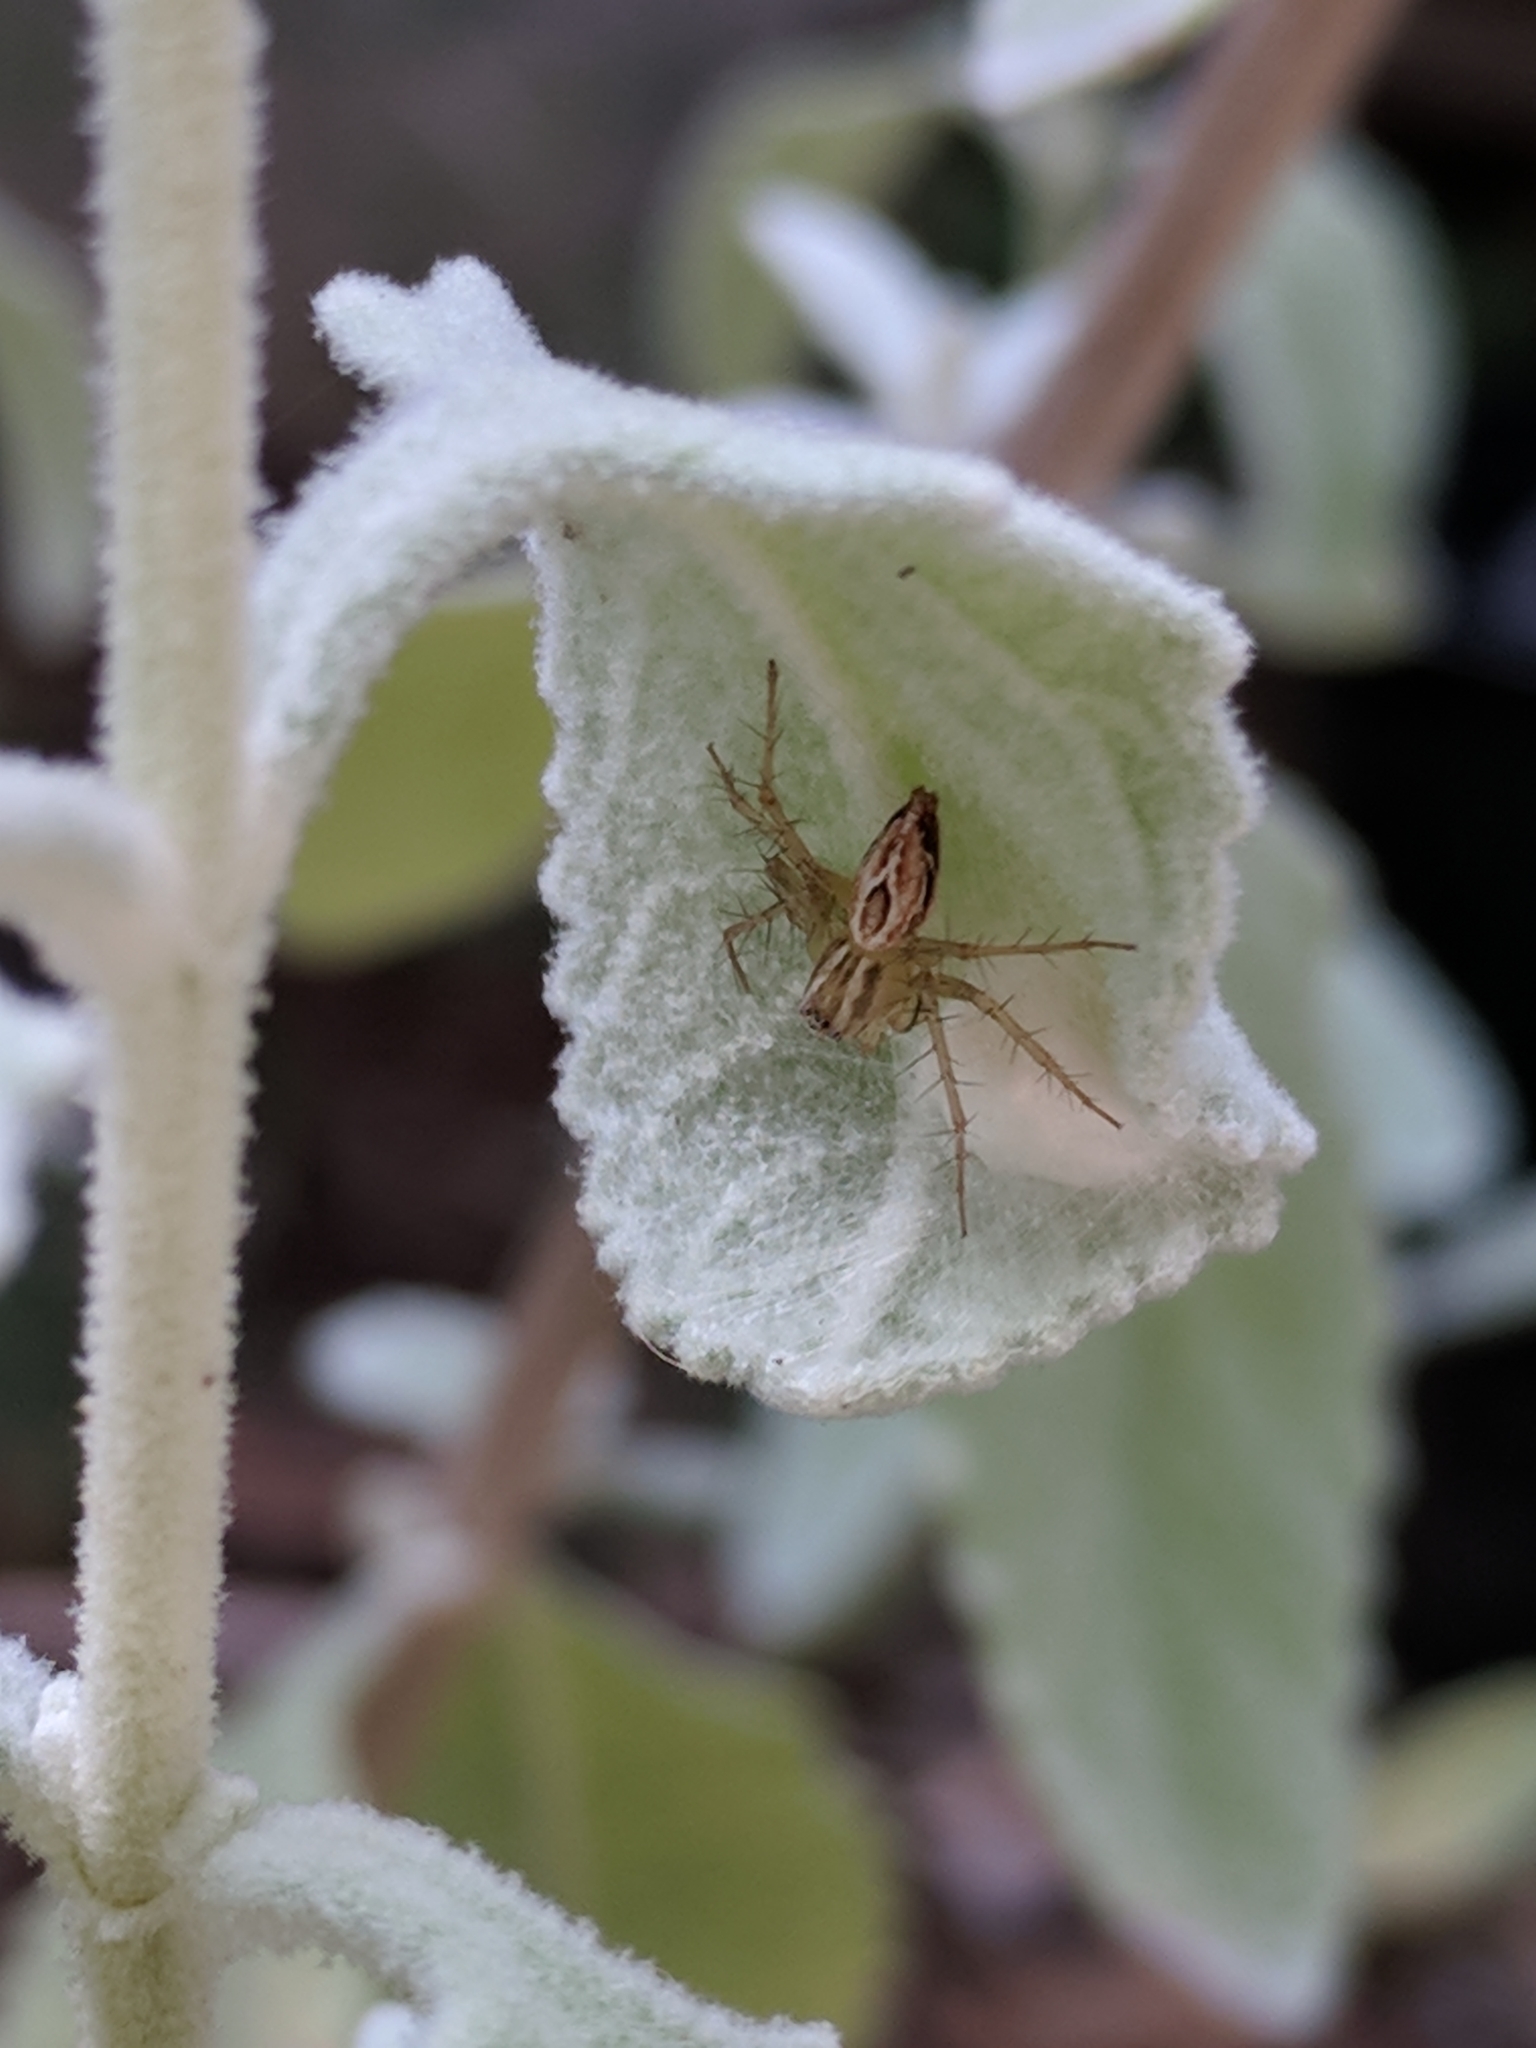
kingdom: Animalia
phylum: Arthropoda
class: Arachnida
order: Araneae
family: Oxyopidae
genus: Oxyopes
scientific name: Oxyopes salticus
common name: Lynx spiders
